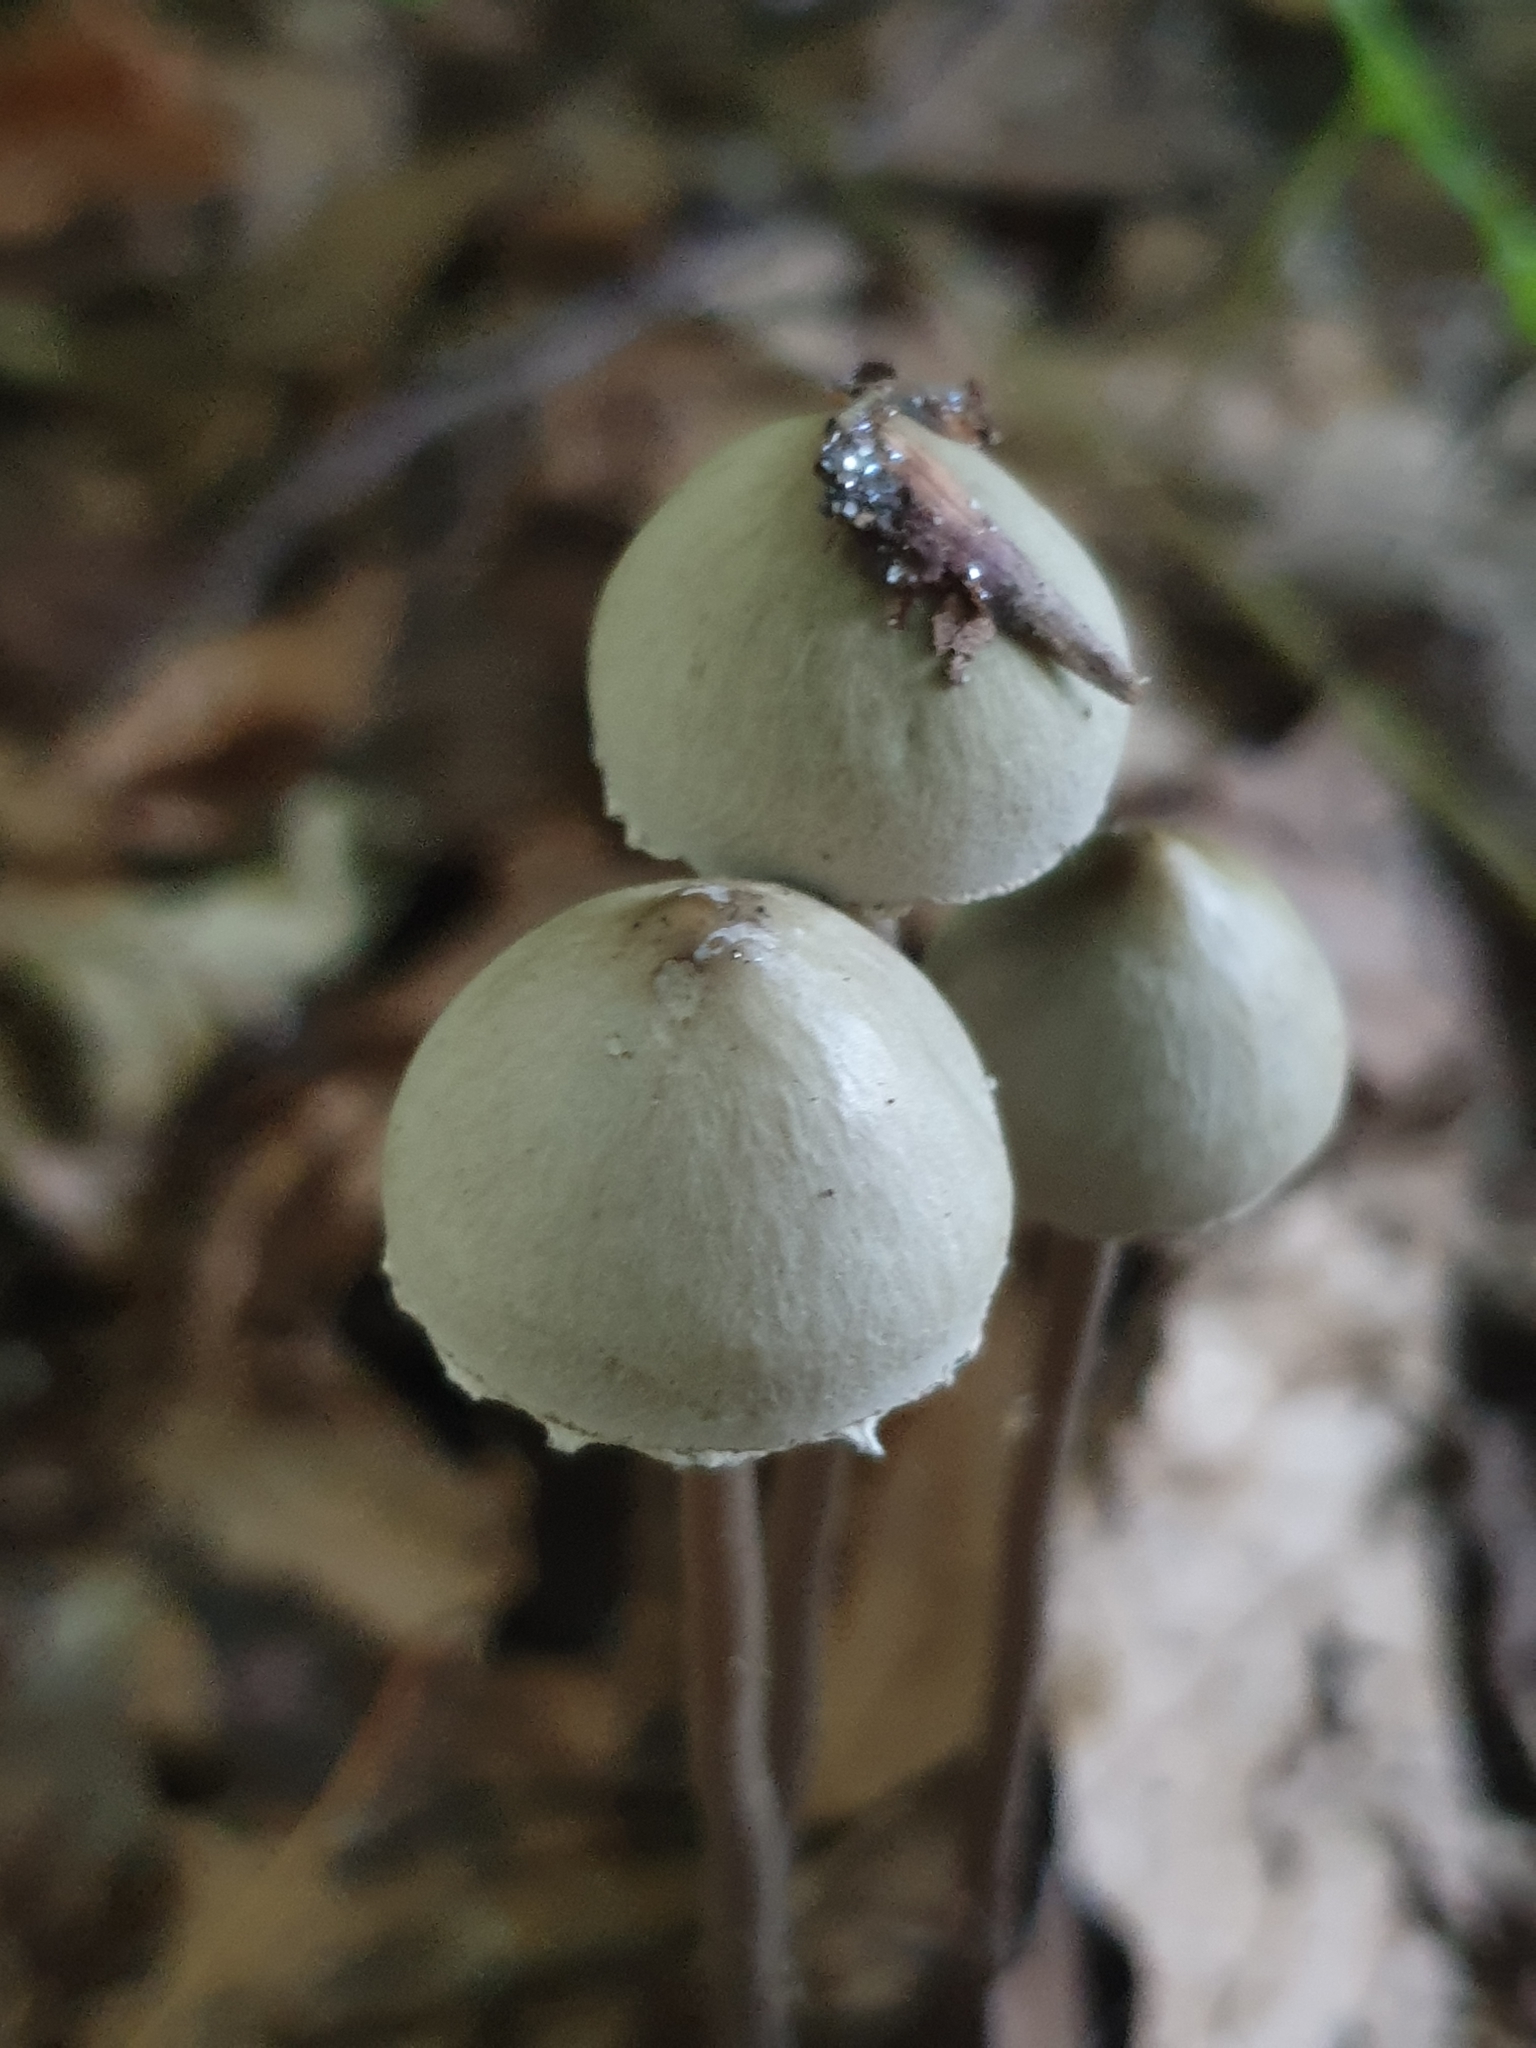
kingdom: Fungi
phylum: Basidiomycota
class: Agaricomycetes
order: Agaricales
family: Bolbitiaceae
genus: Panaeolus
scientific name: Panaeolus papilionaceus
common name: Petticoat mottlegill
